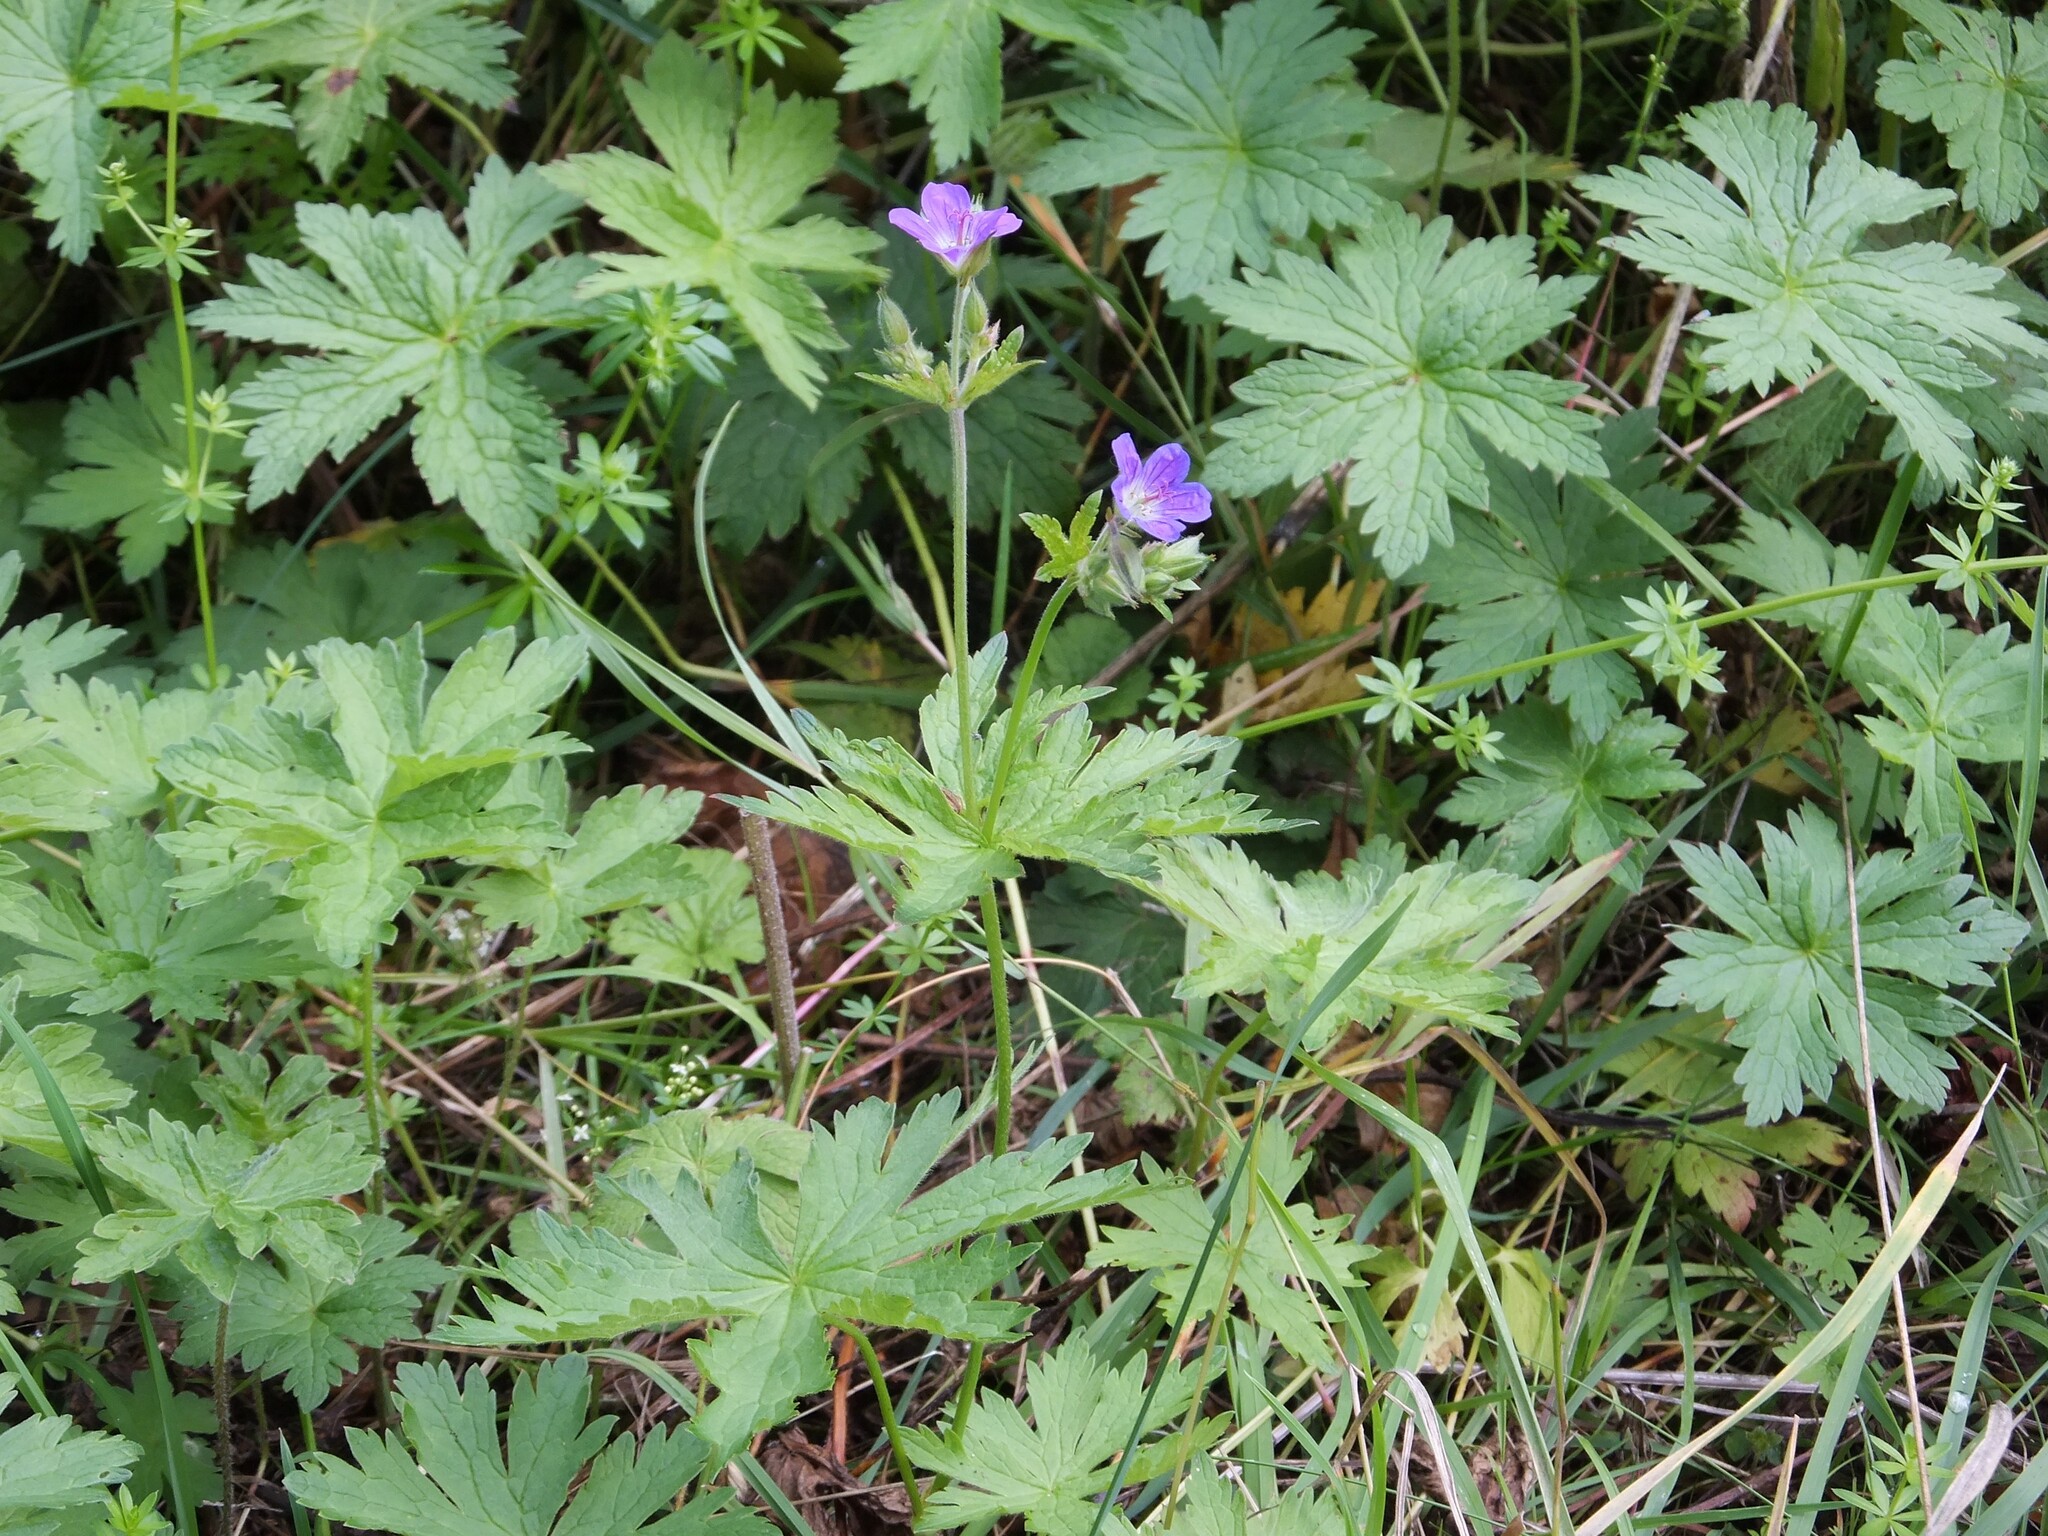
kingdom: Plantae
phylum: Tracheophyta
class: Magnoliopsida
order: Geraniales
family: Geraniaceae
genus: Geranium
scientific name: Geranium sylvaticum
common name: Wood crane's-bill
